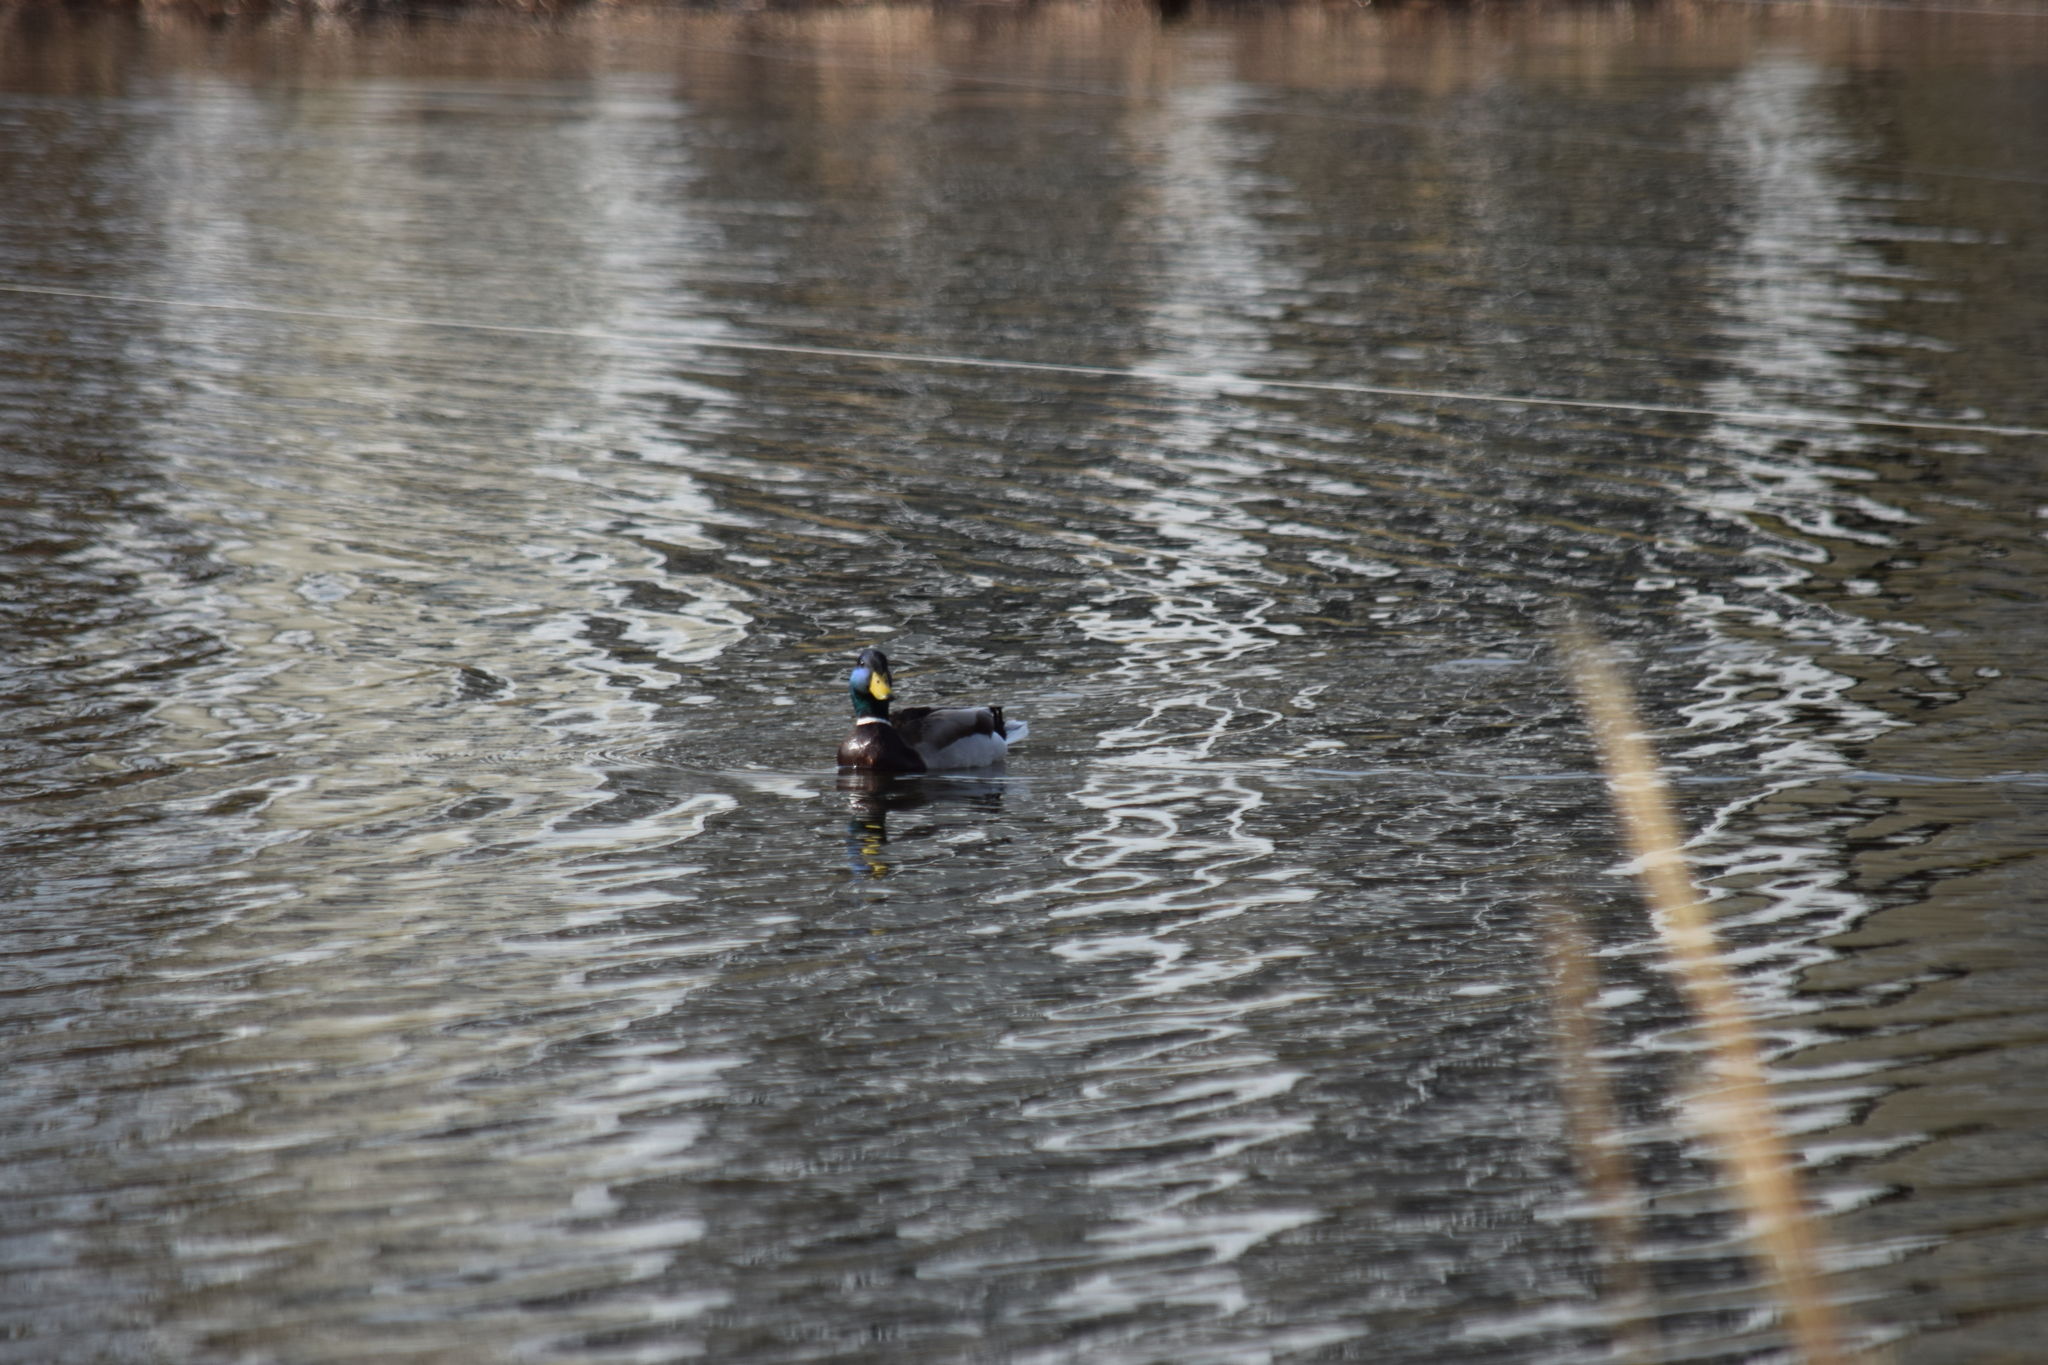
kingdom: Animalia
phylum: Chordata
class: Aves
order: Anseriformes
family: Anatidae
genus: Anas
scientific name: Anas platyrhynchos
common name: Mallard
